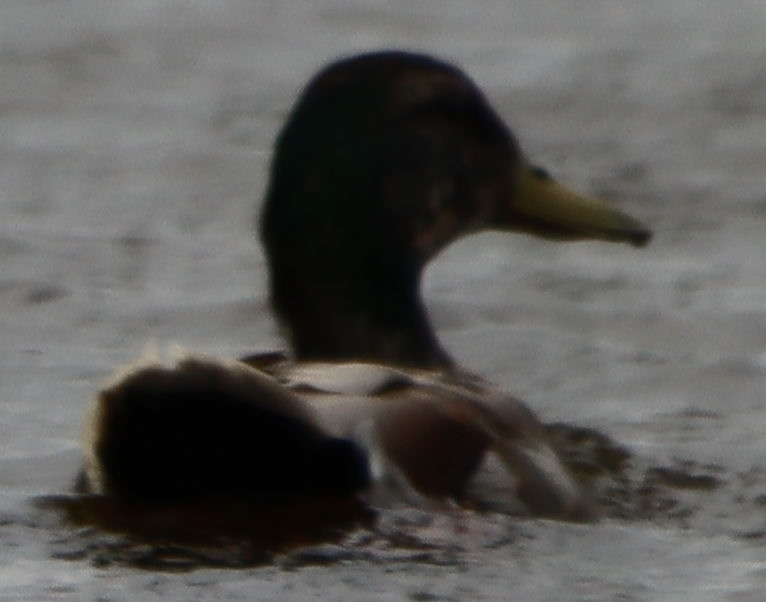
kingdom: Animalia
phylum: Chordata
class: Aves
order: Anseriformes
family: Anatidae
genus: Anas
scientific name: Anas platyrhynchos
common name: Mallard
